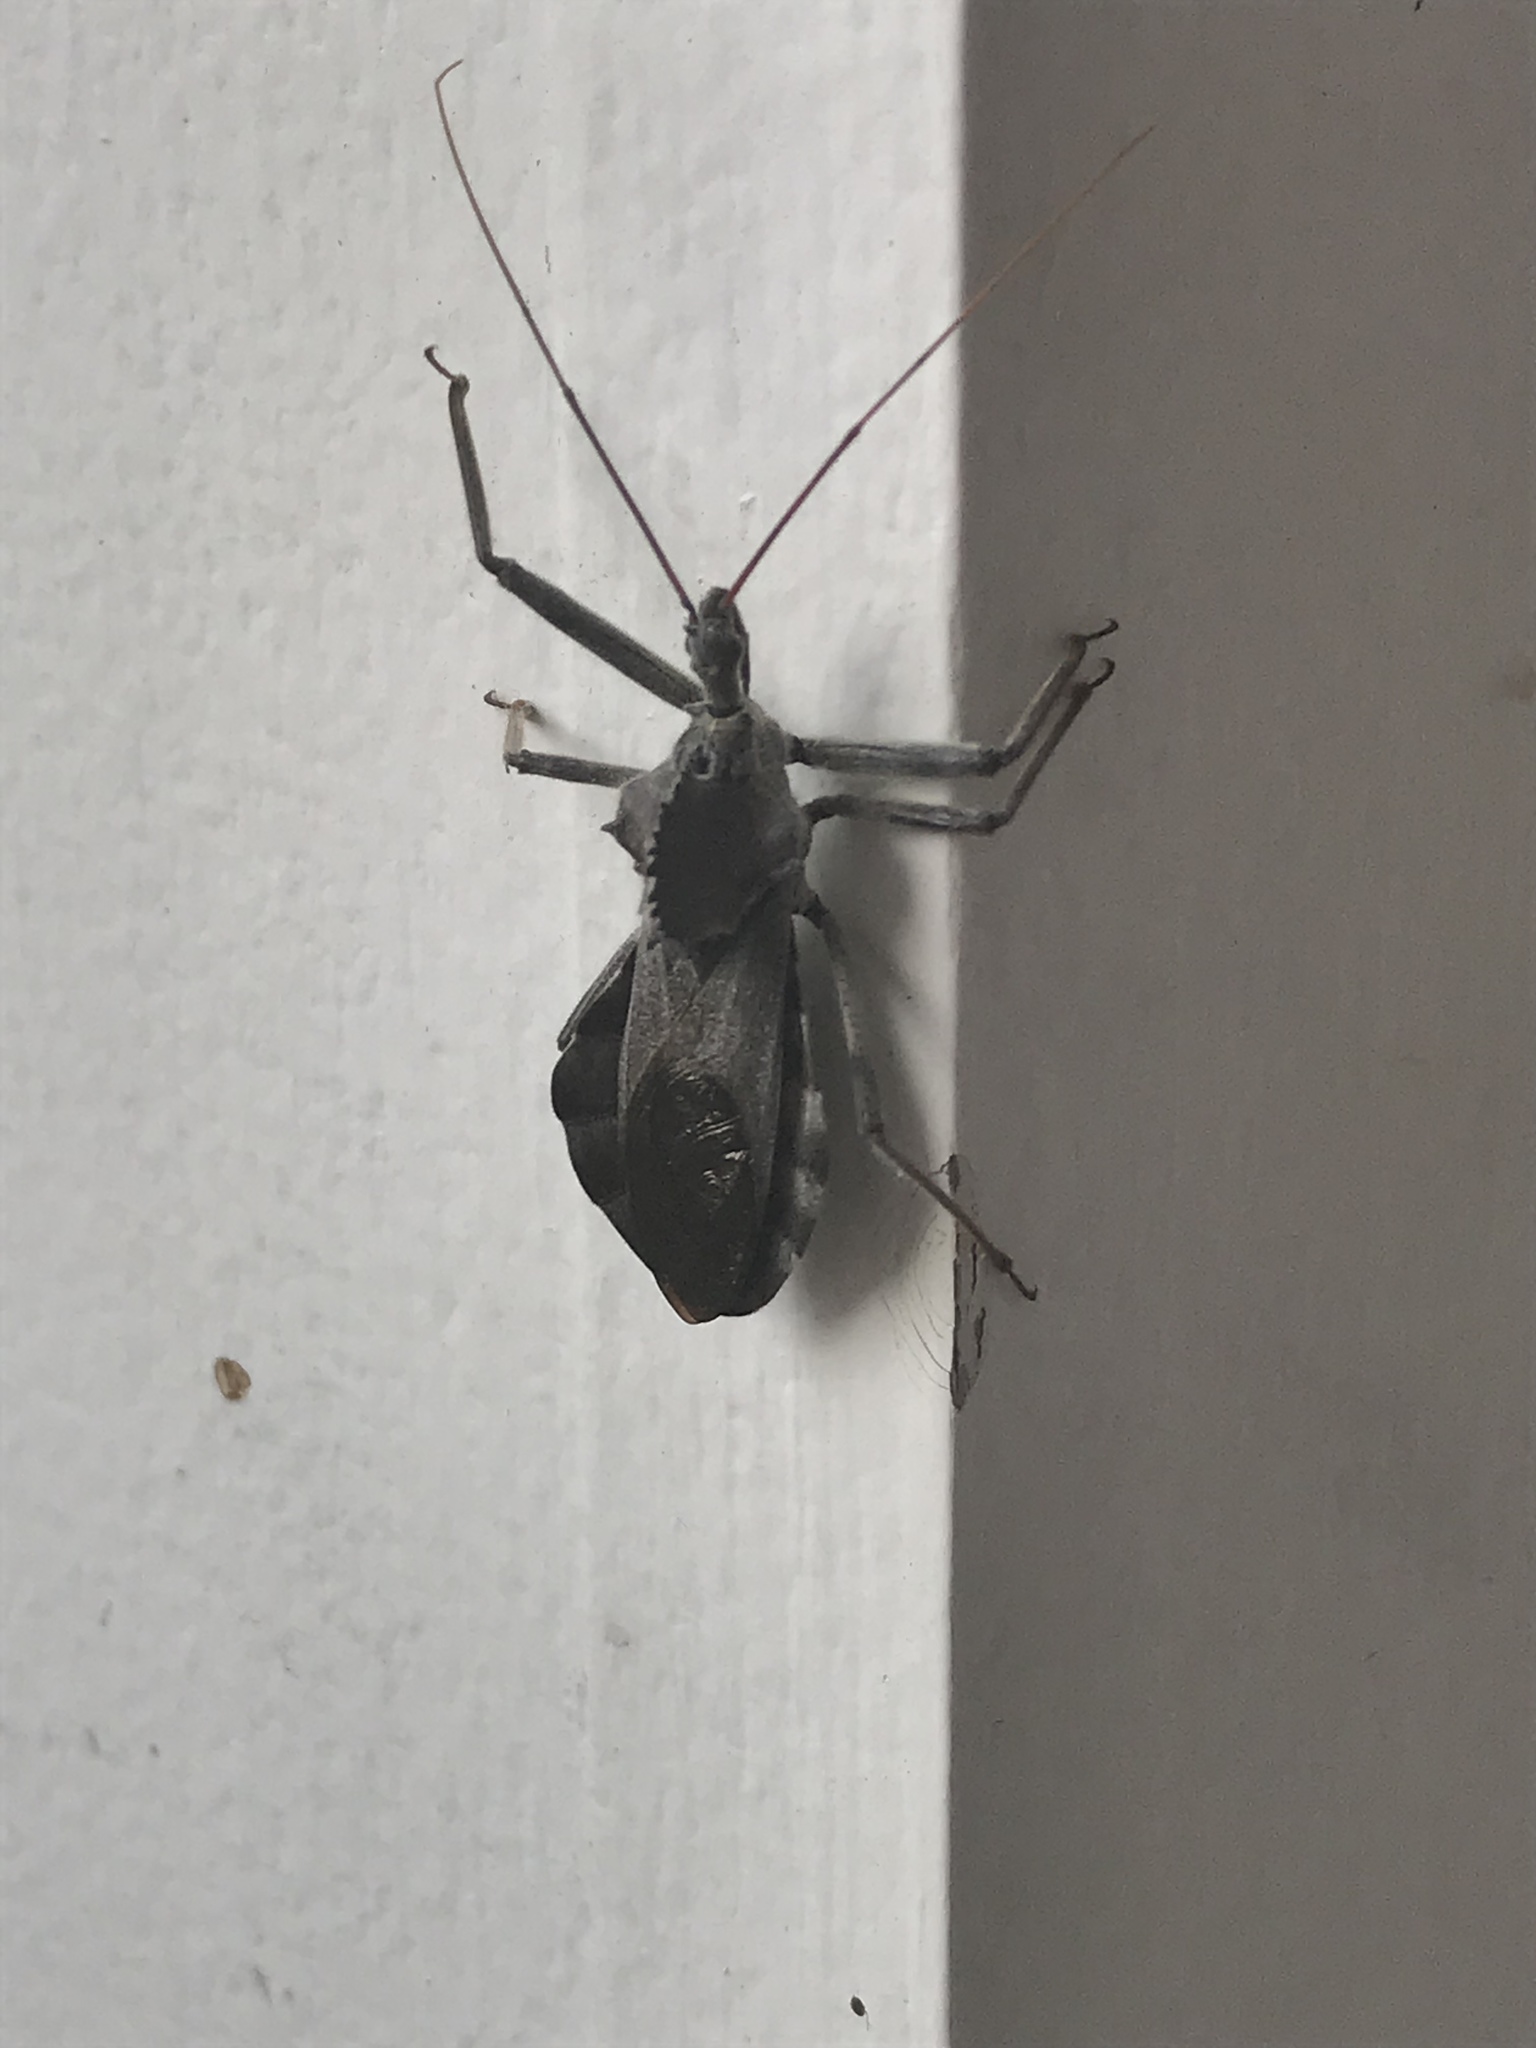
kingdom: Animalia
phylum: Arthropoda
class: Insecta
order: Hemiptera
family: Reduviidae
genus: Arilus
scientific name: Arilus cristatus
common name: North american wheel bug
